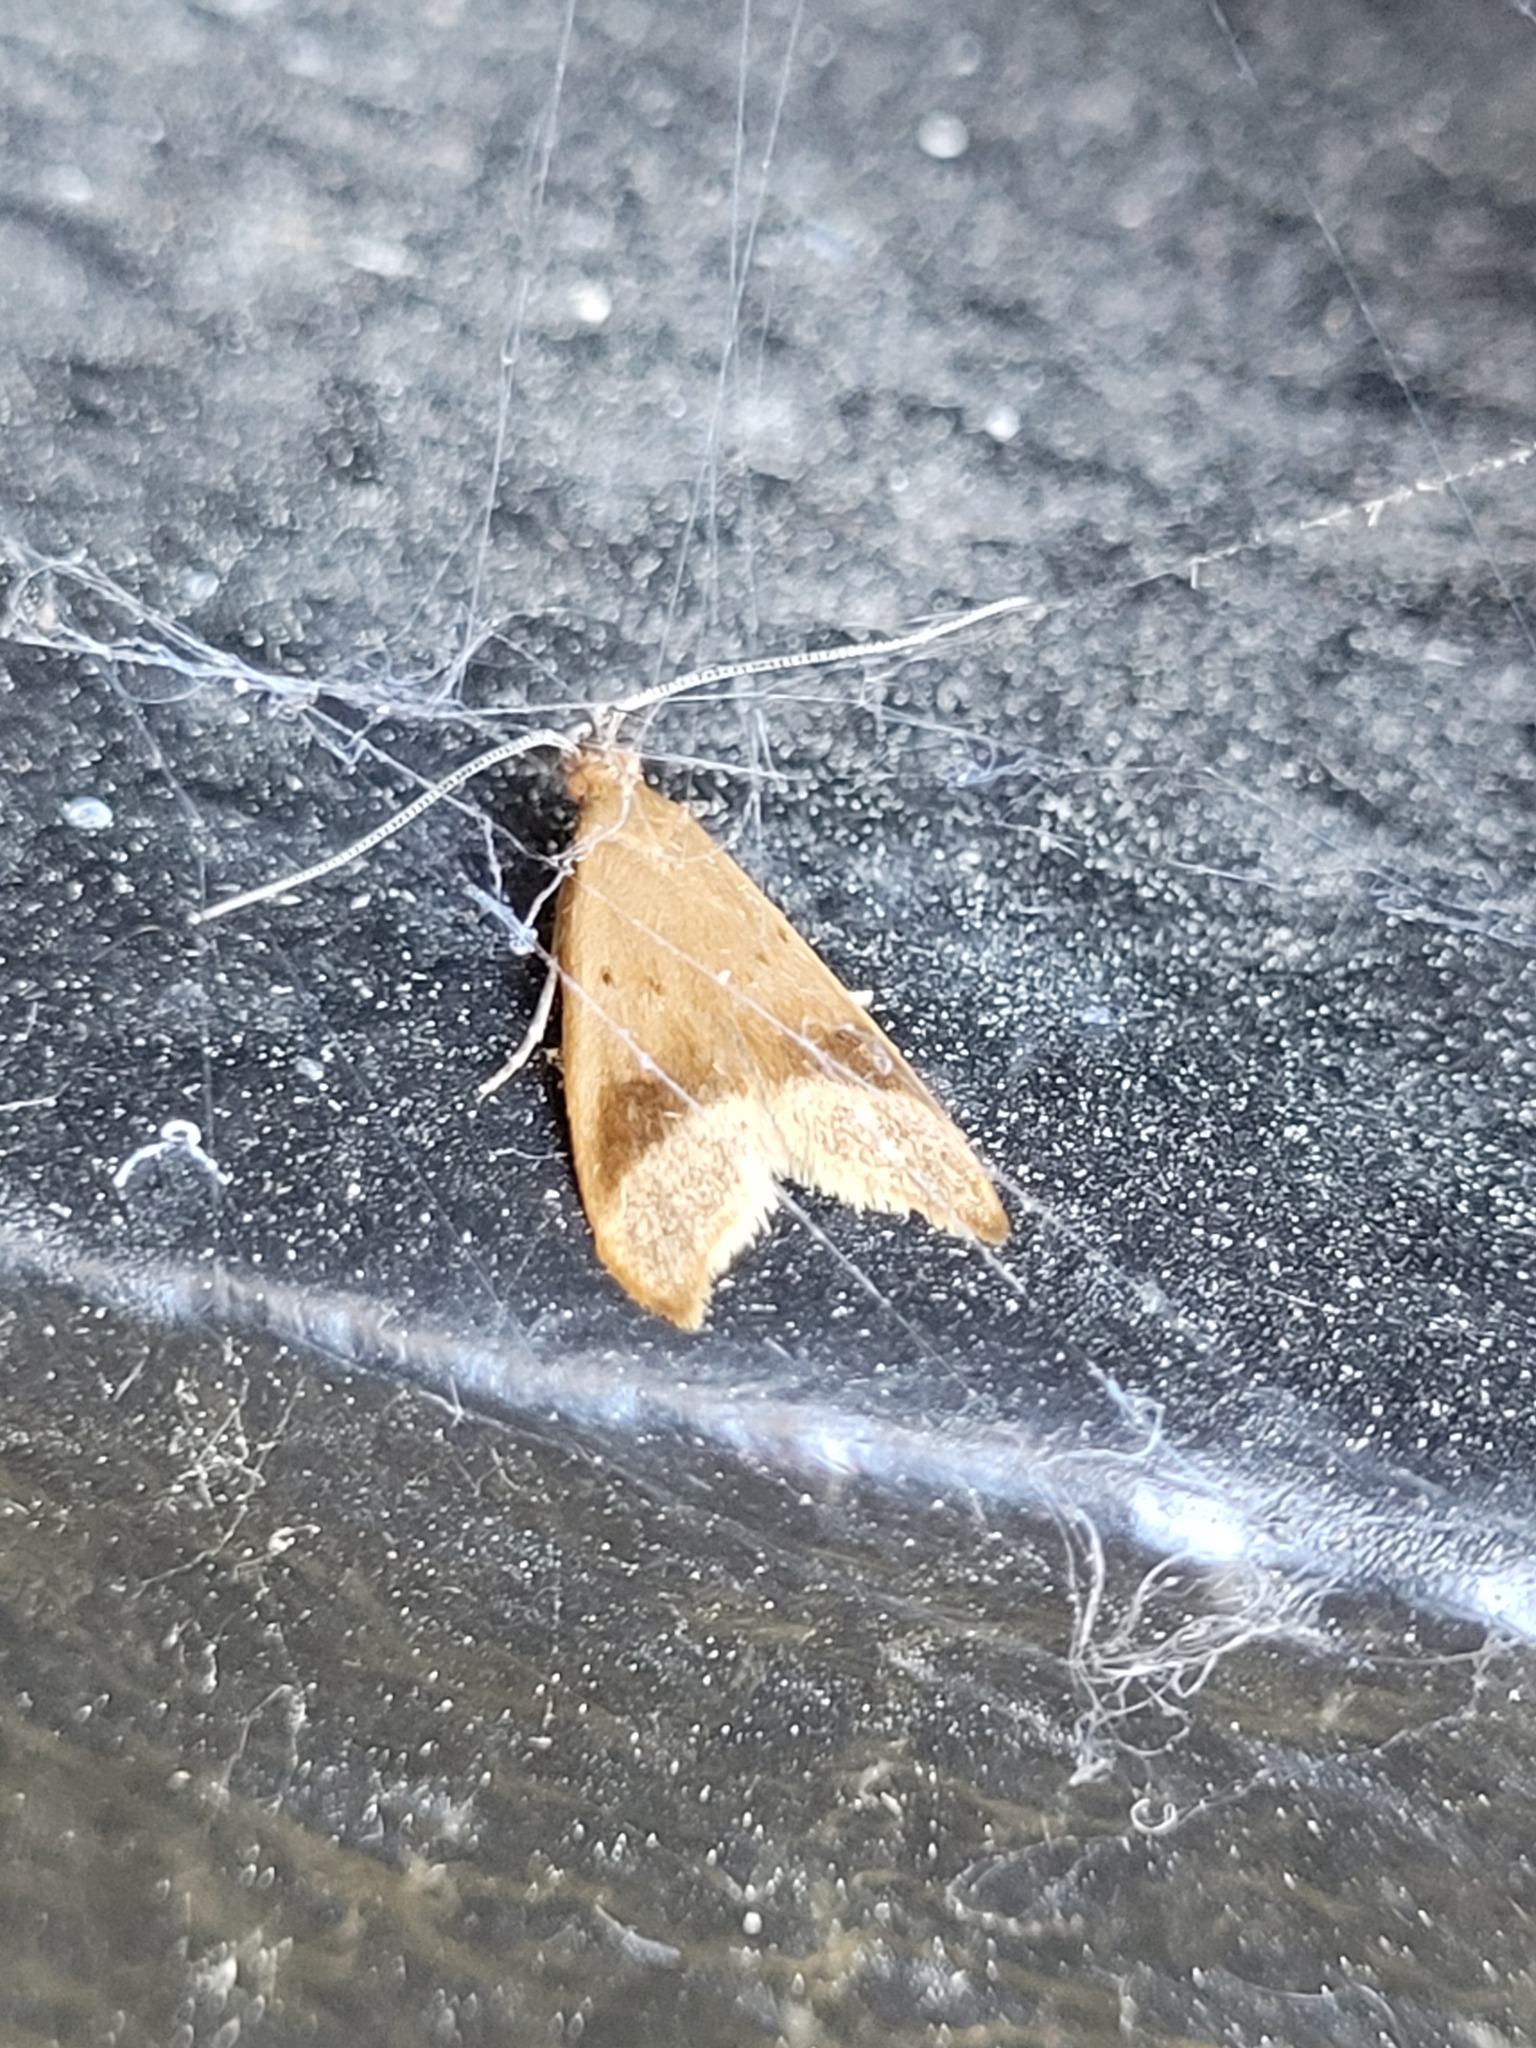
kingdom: Animalia
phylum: Arthropoda
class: Insecta
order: Lepidoptera
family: Oecophoridae
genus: Gymnobathra
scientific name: Gymnobathra hyetodes
